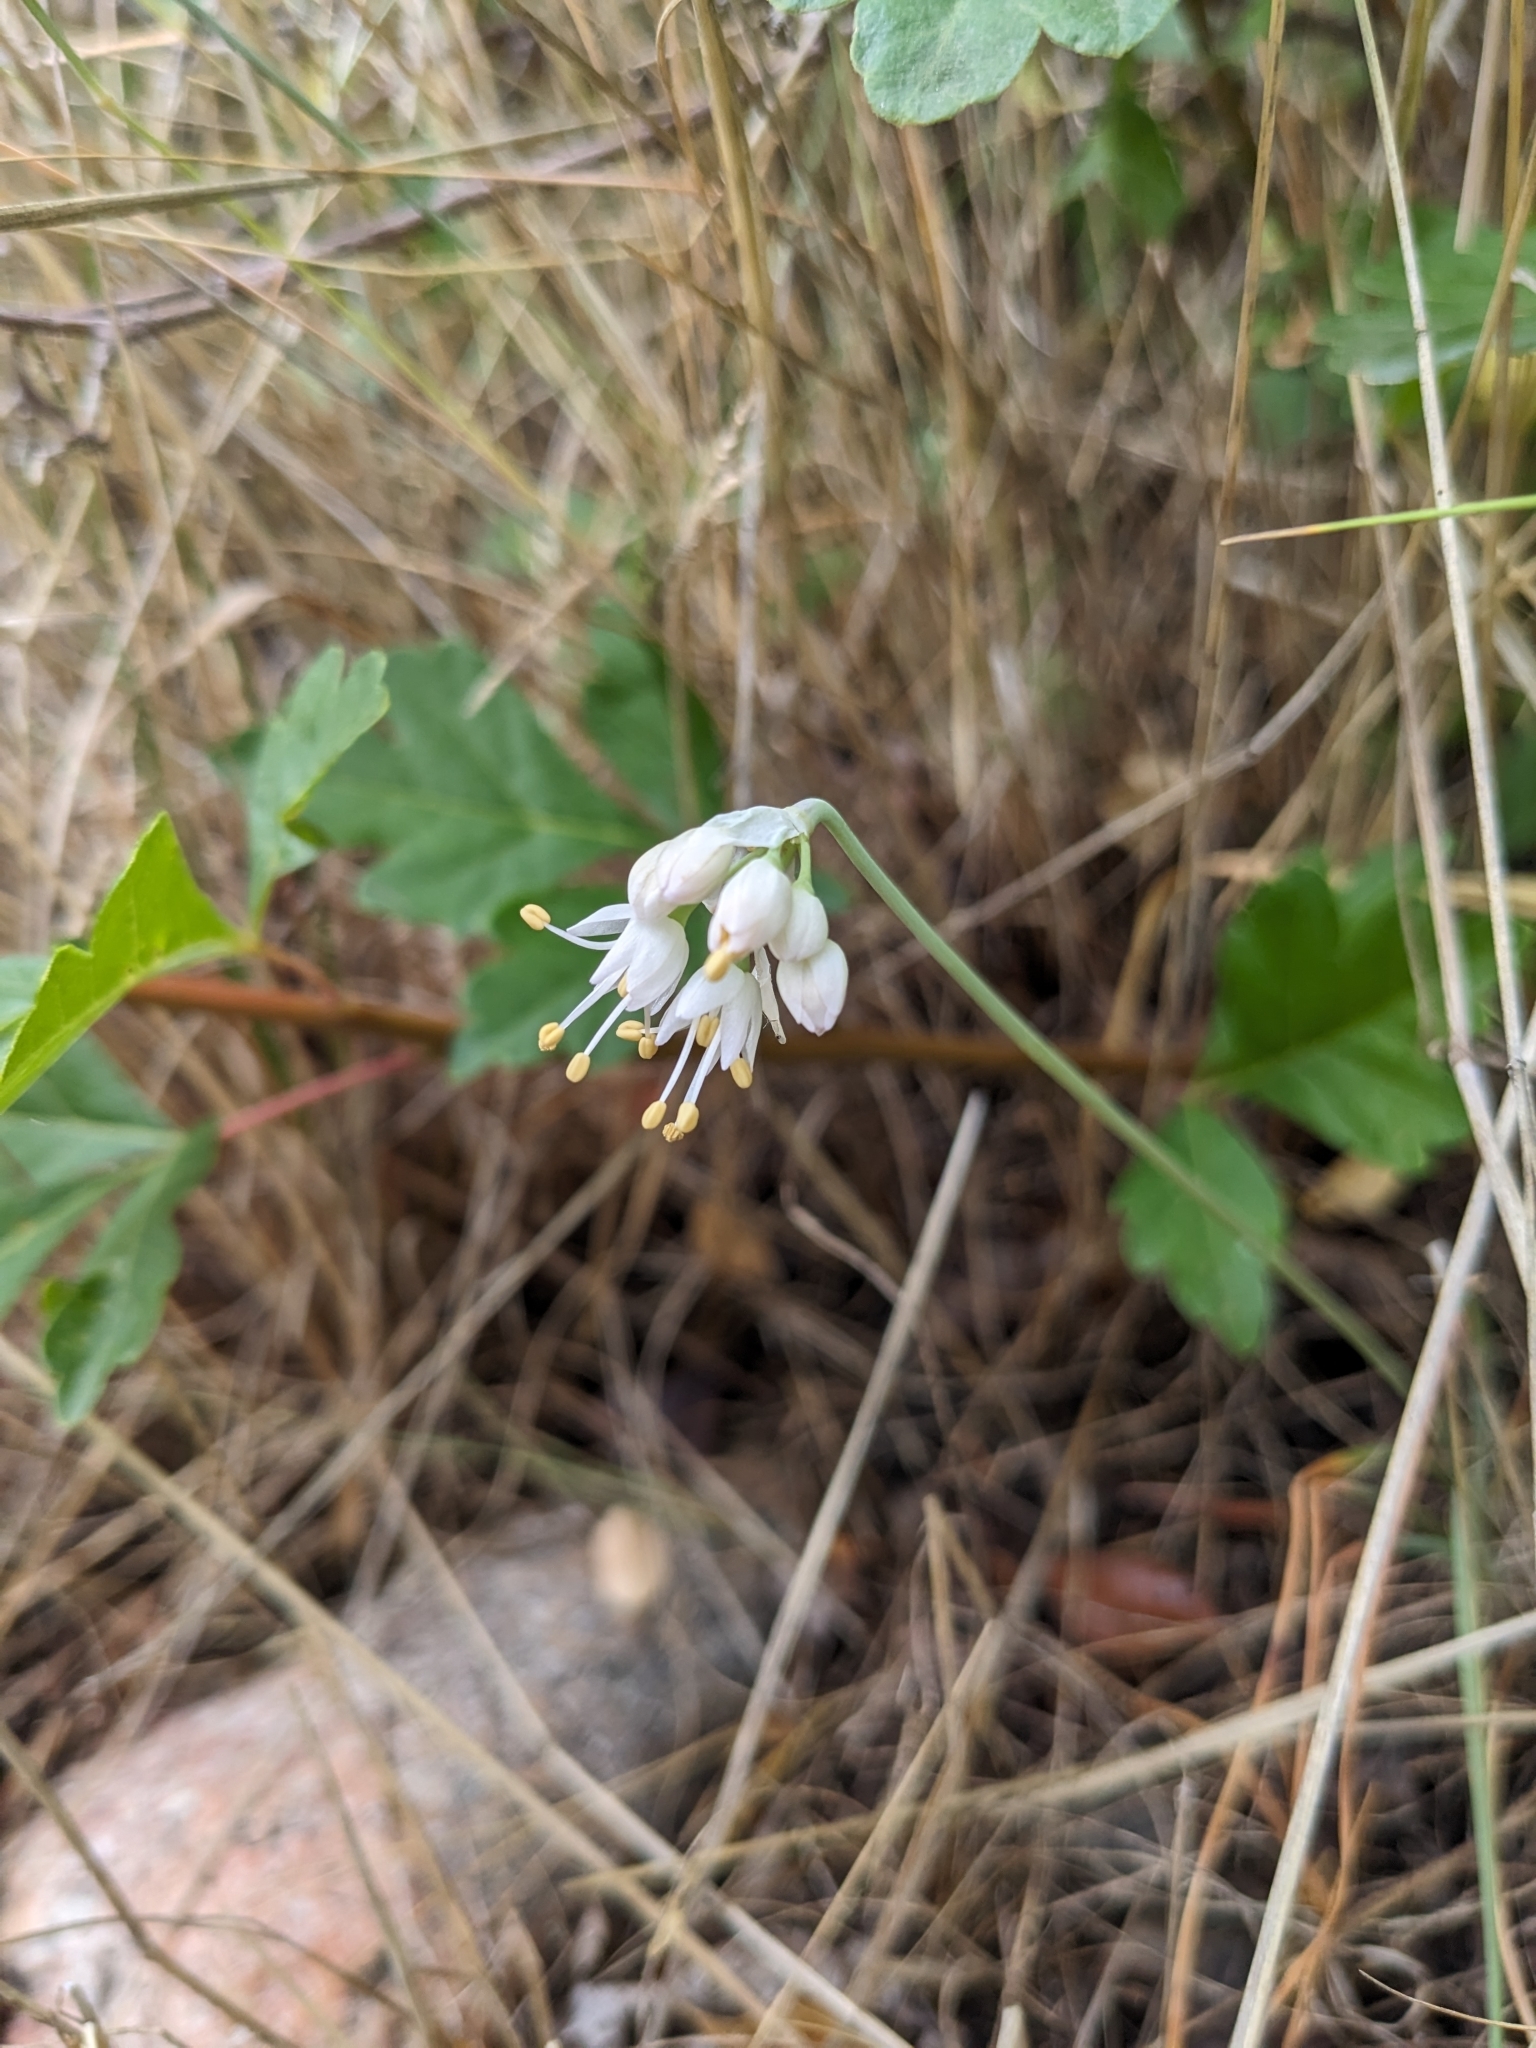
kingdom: Plantae
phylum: Tracheophyta
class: Liliopsida
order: Asparagales
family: Amaryllidaceae
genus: Allium
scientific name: Allium cernuum
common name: Nodding onion
